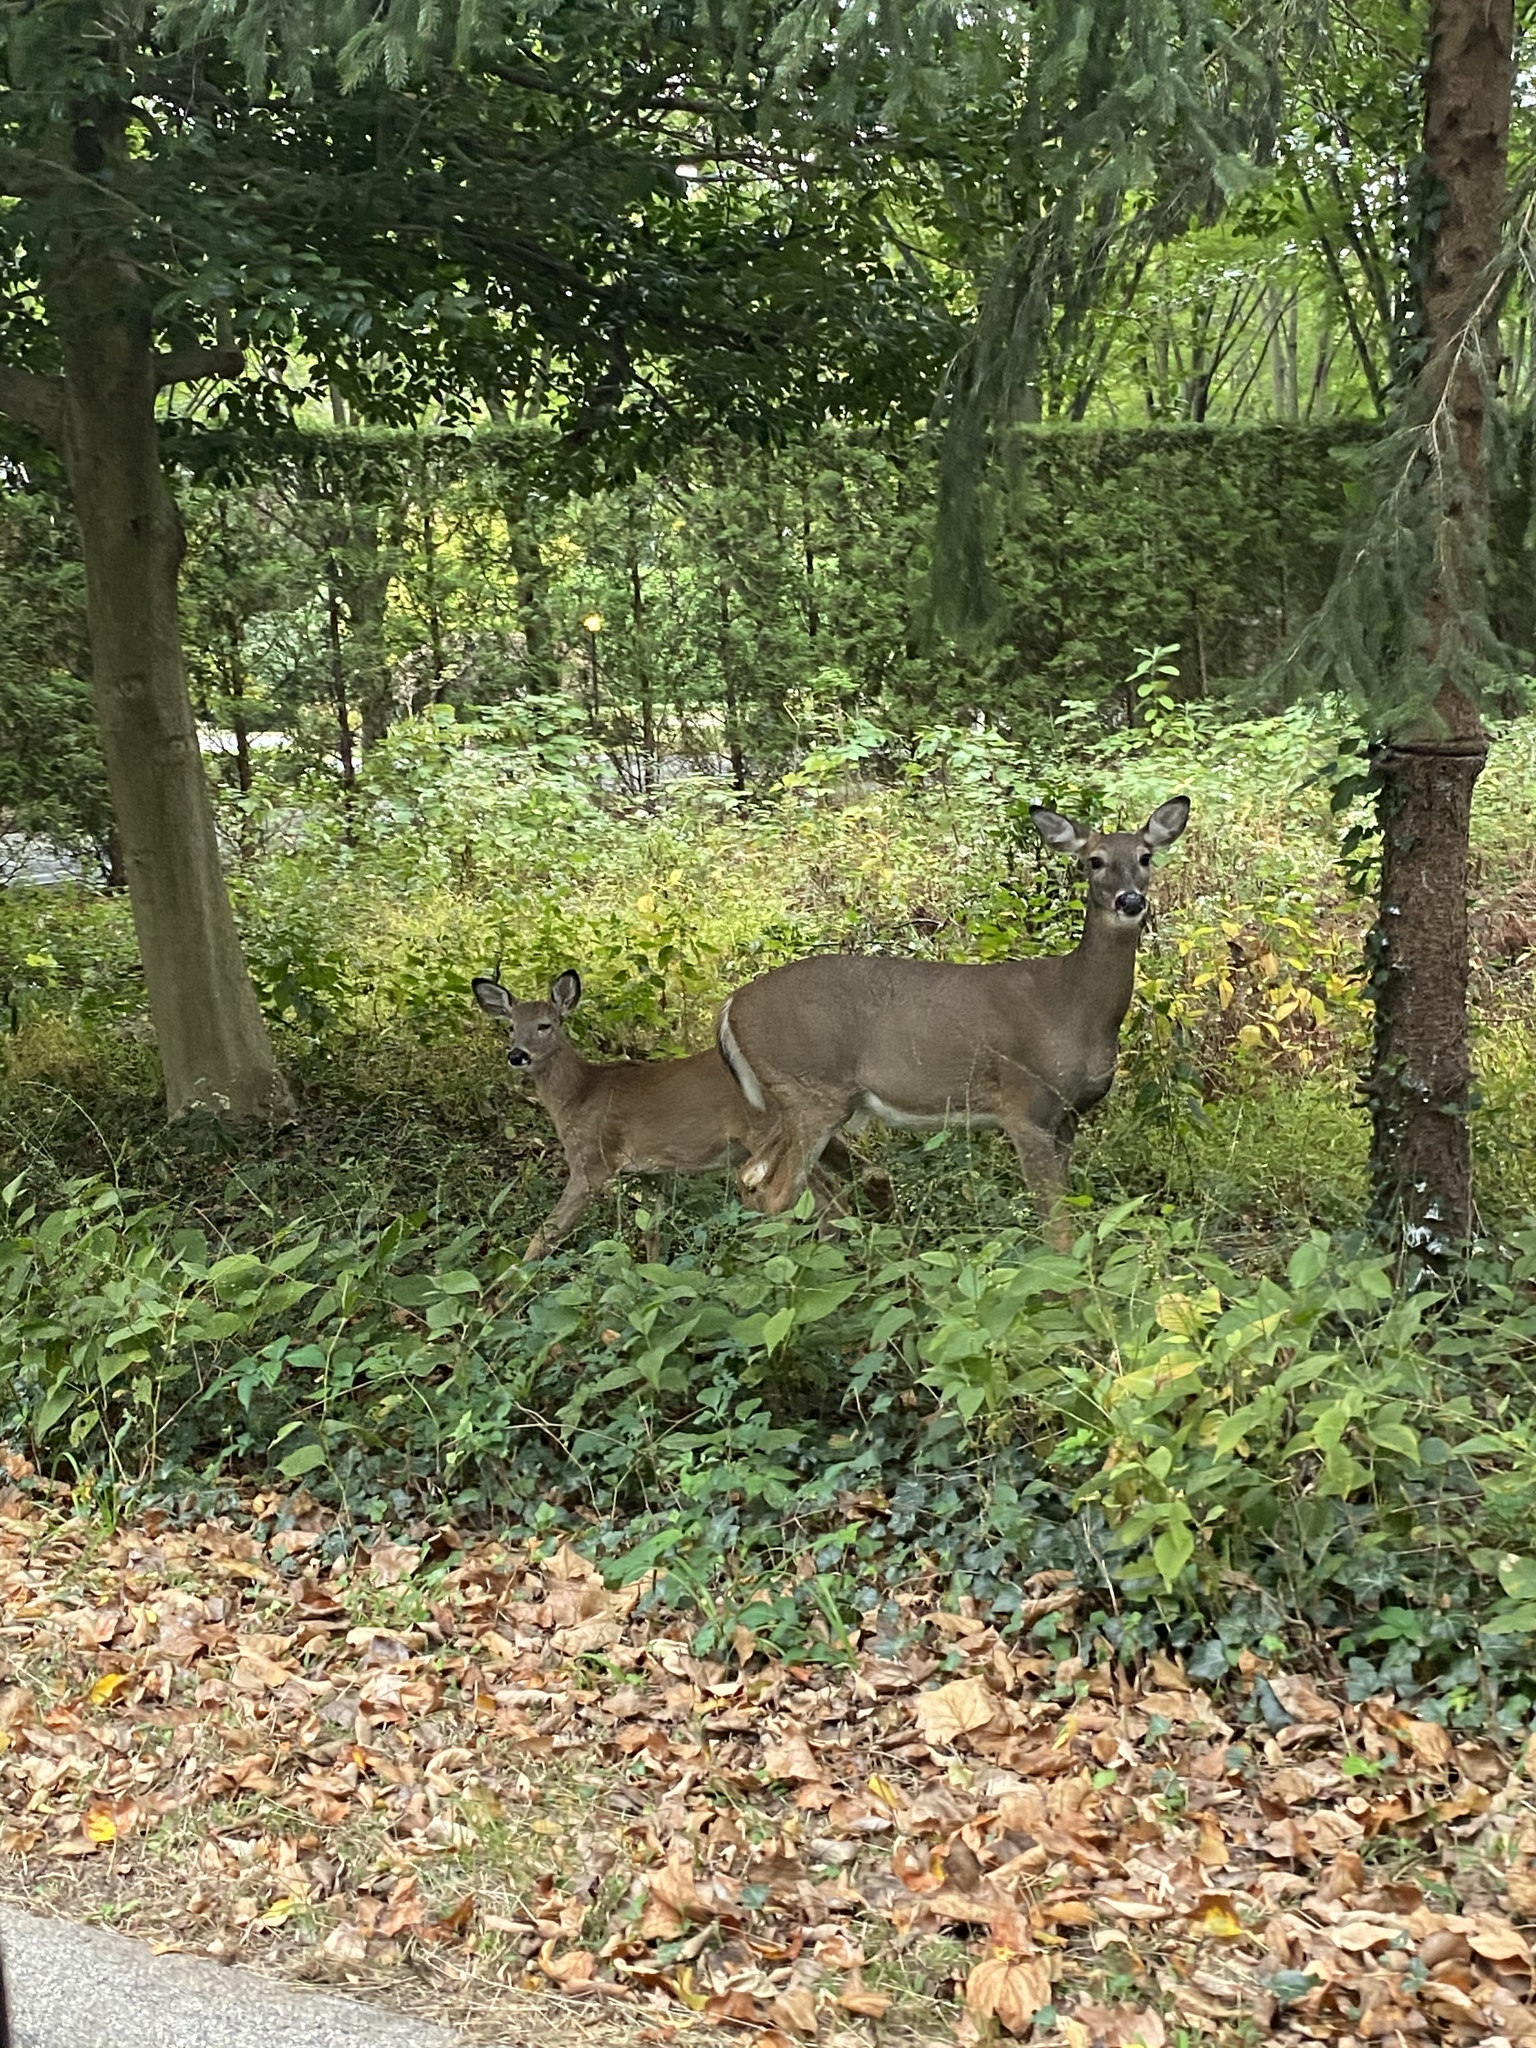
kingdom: Animalia
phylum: Chordata
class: Mammalia
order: Artiodactyla
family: Cervidae
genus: Odocoileus
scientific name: Odocoileus virginianus
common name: White-tailed deer
